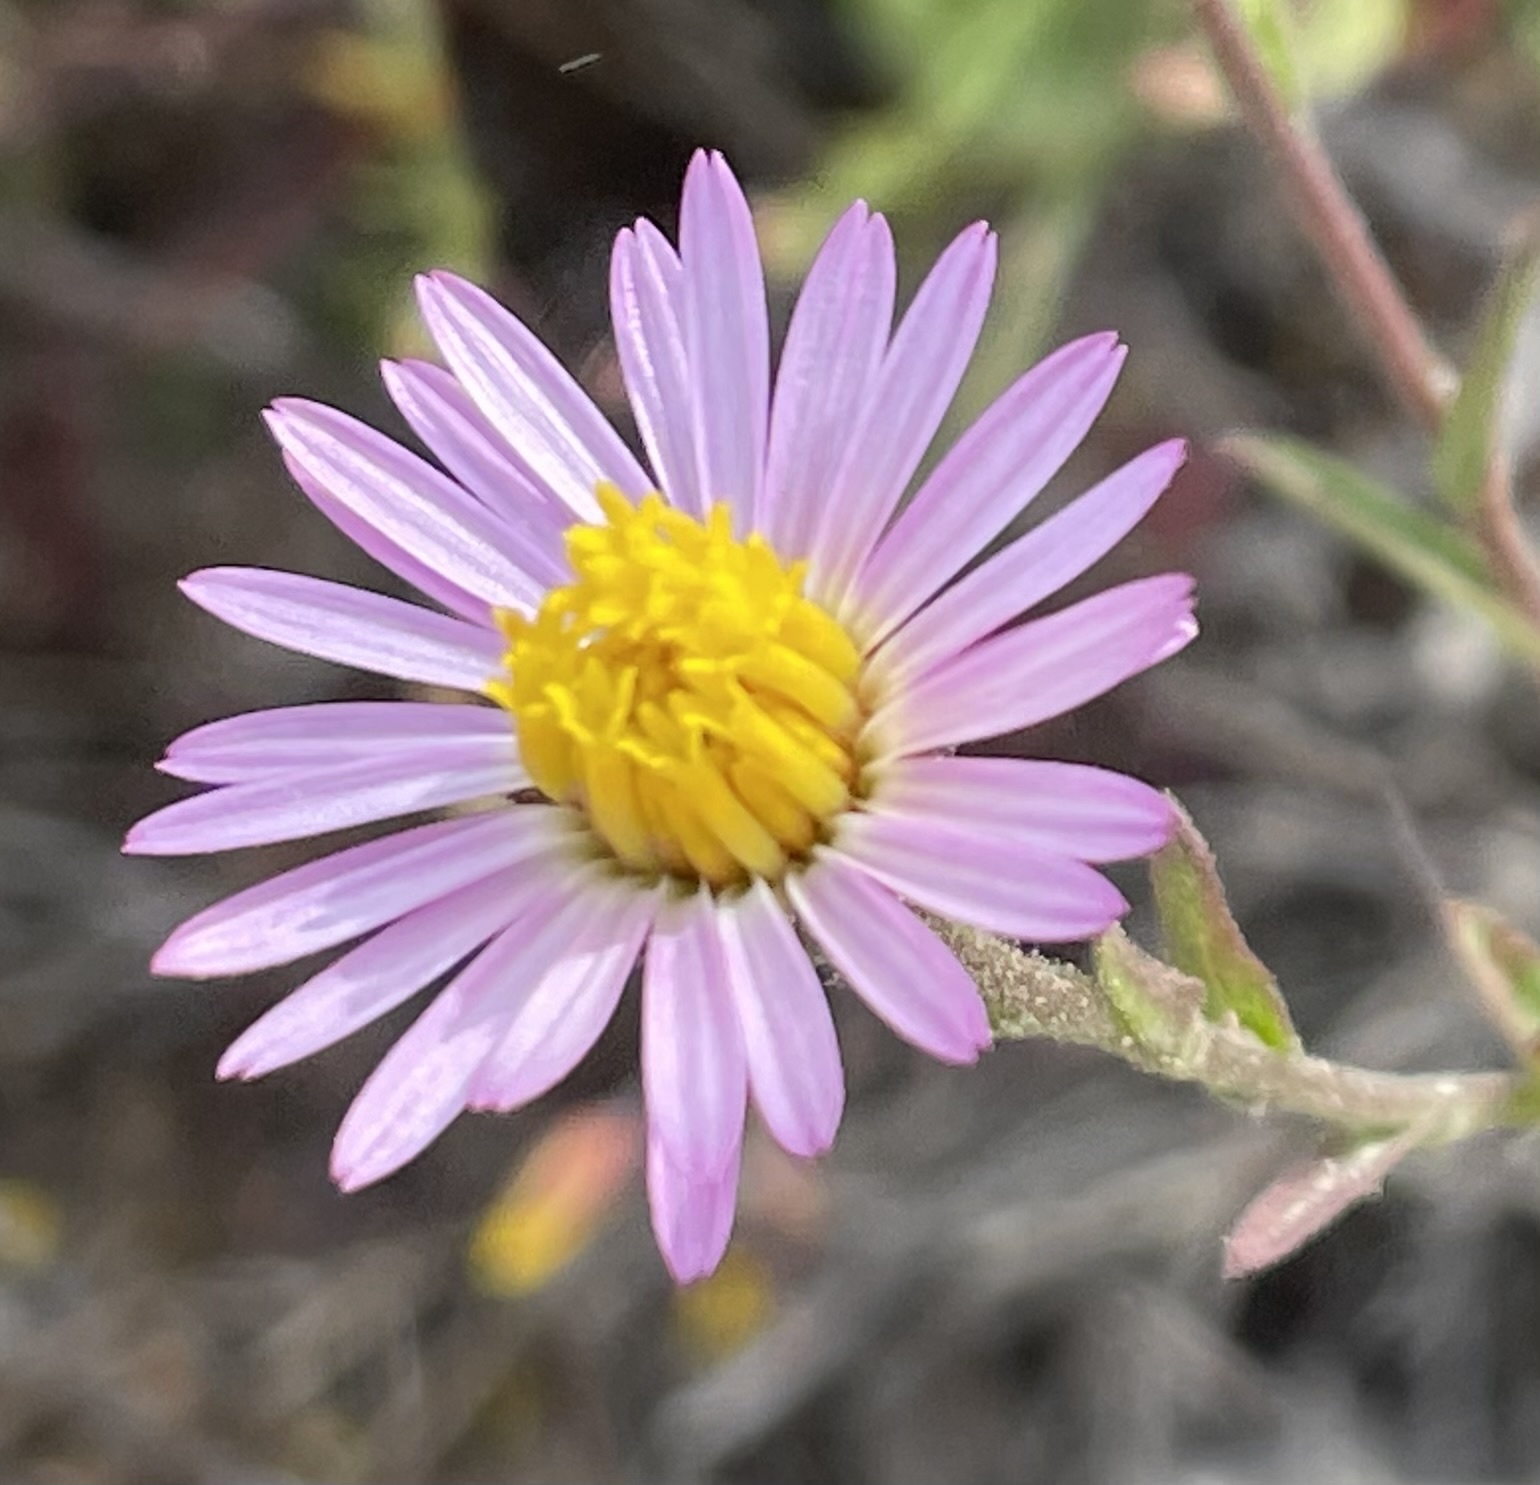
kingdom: Plantae
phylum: Tracheophyta
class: Magnoliopsida
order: Asterales
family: Asteraceae
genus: Corethrogyne
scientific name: Corethrogyne filaginifolia
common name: Sand-aster
